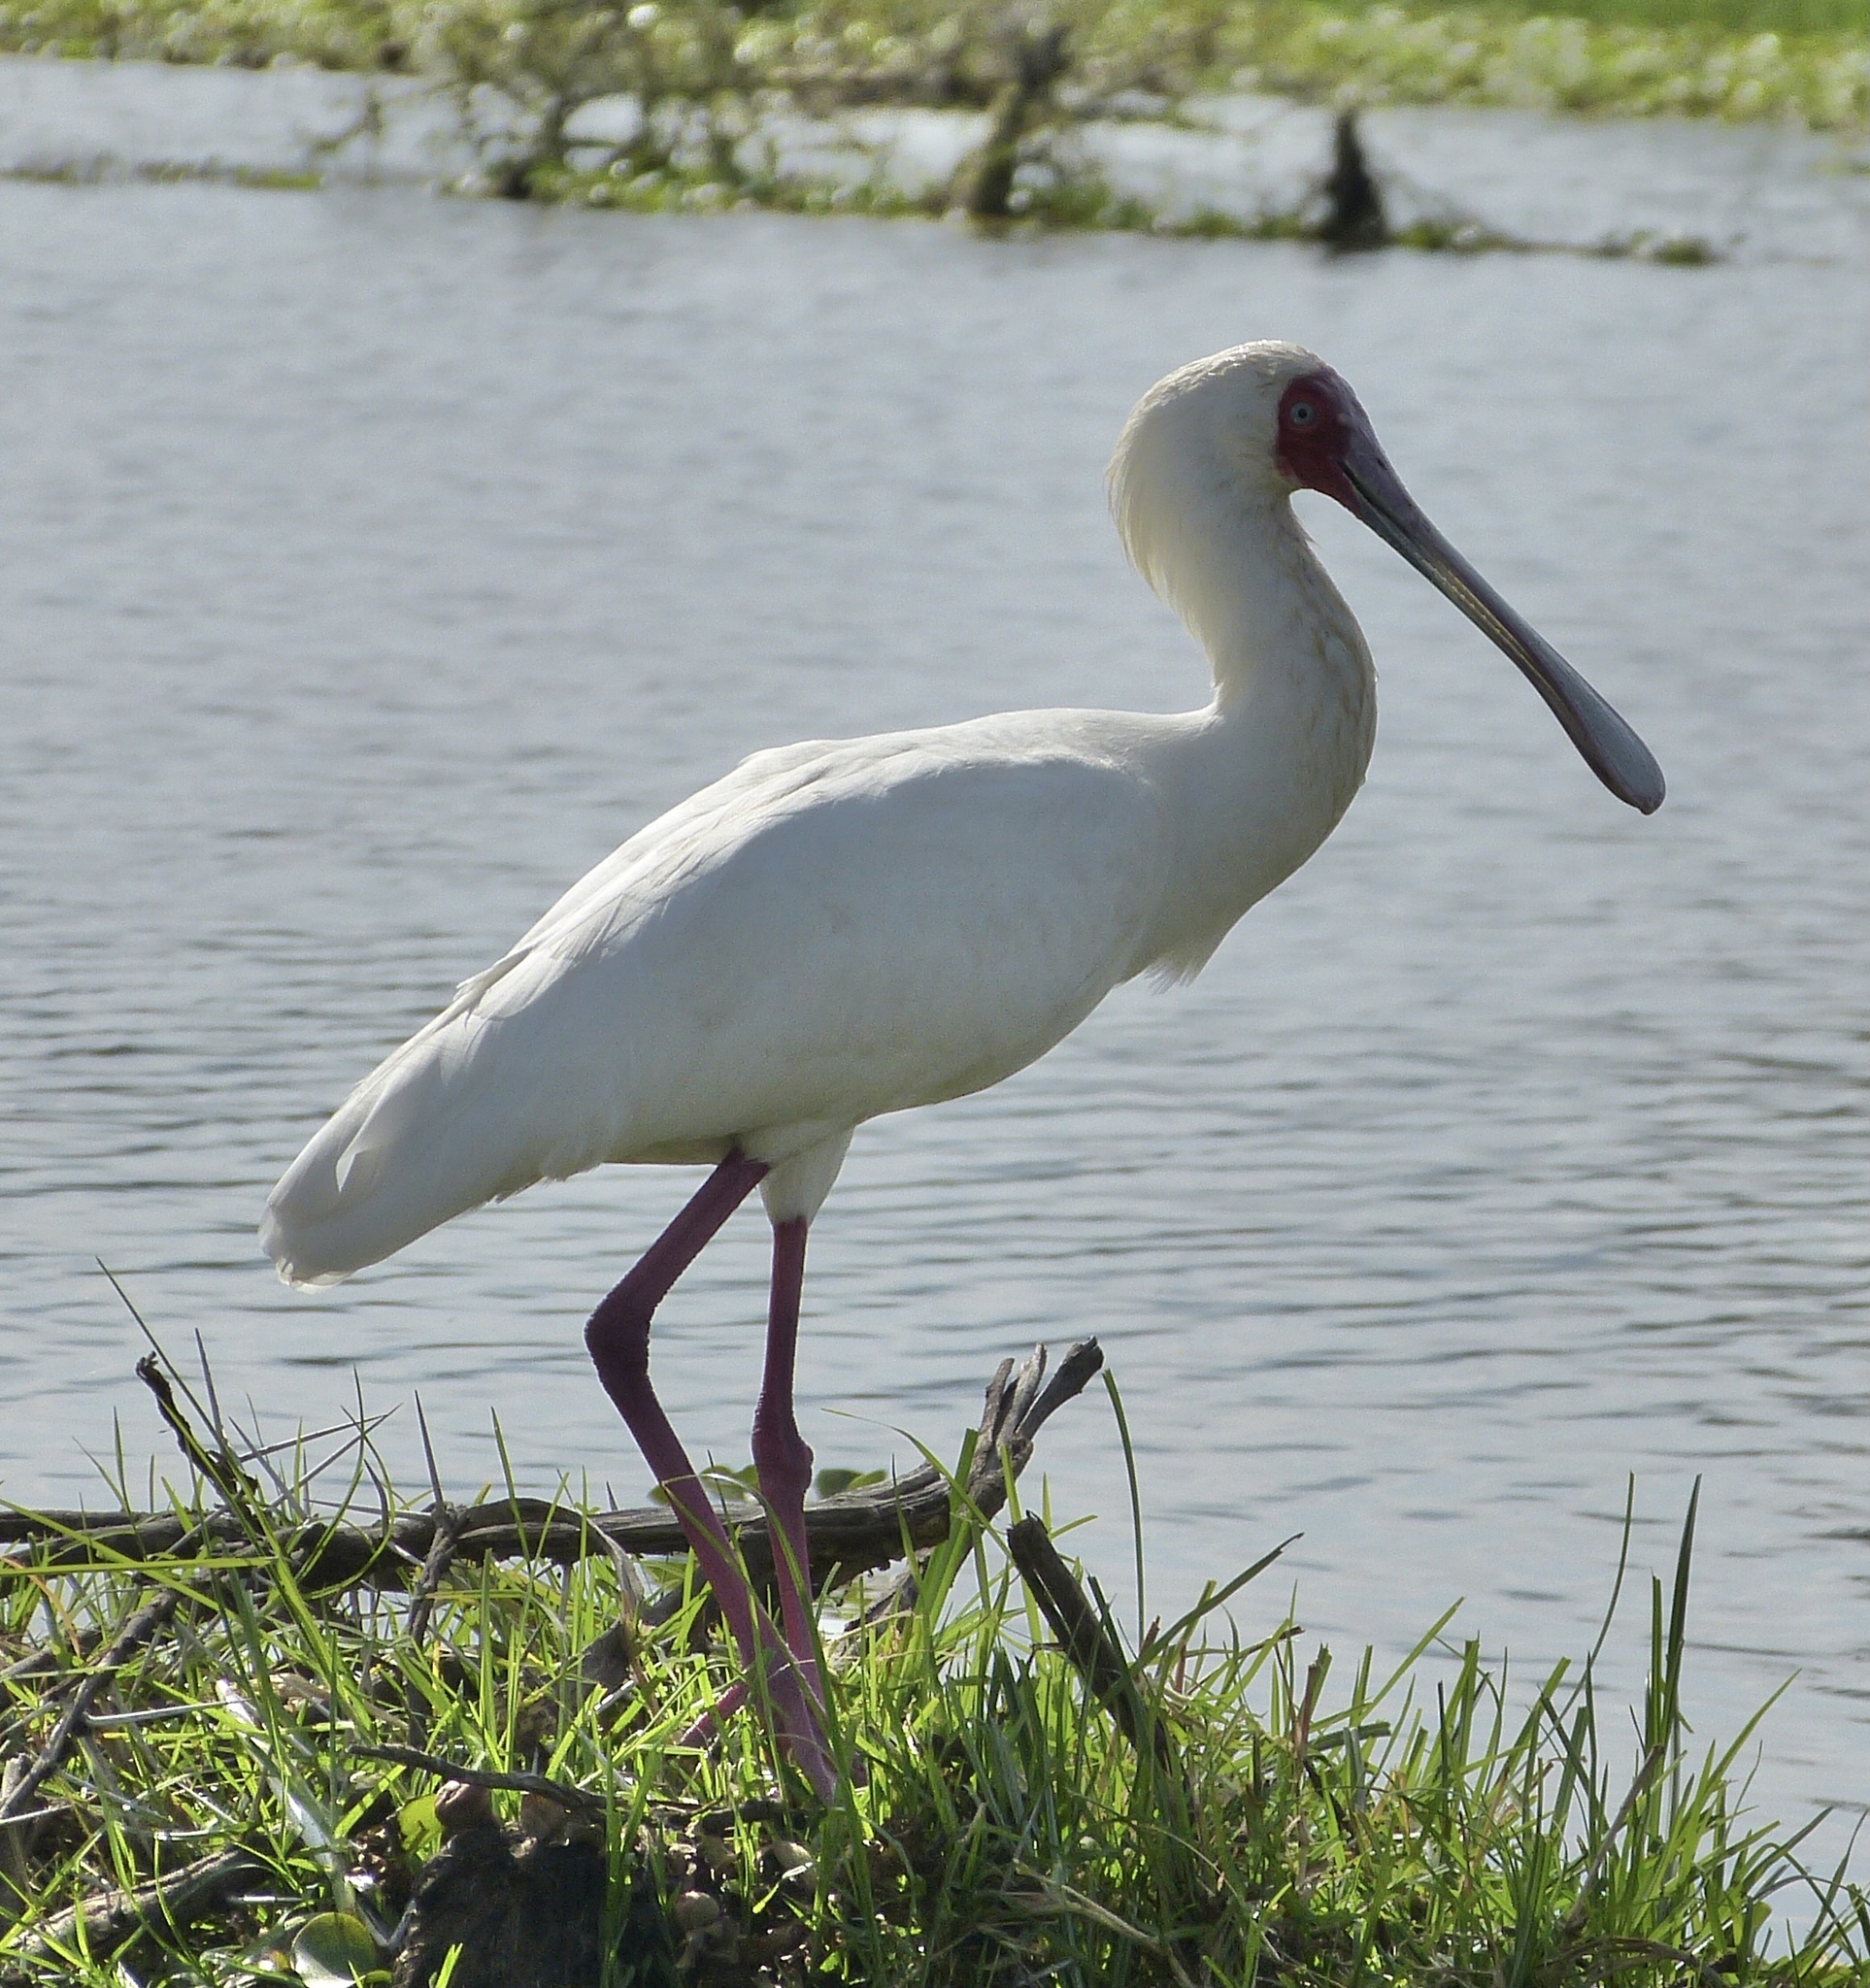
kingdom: Animalia
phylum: Chordata
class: Aves
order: Pelecaniformes
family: Threskiornithidae
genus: Platalea
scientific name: Platalea alba
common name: African spoonbill
